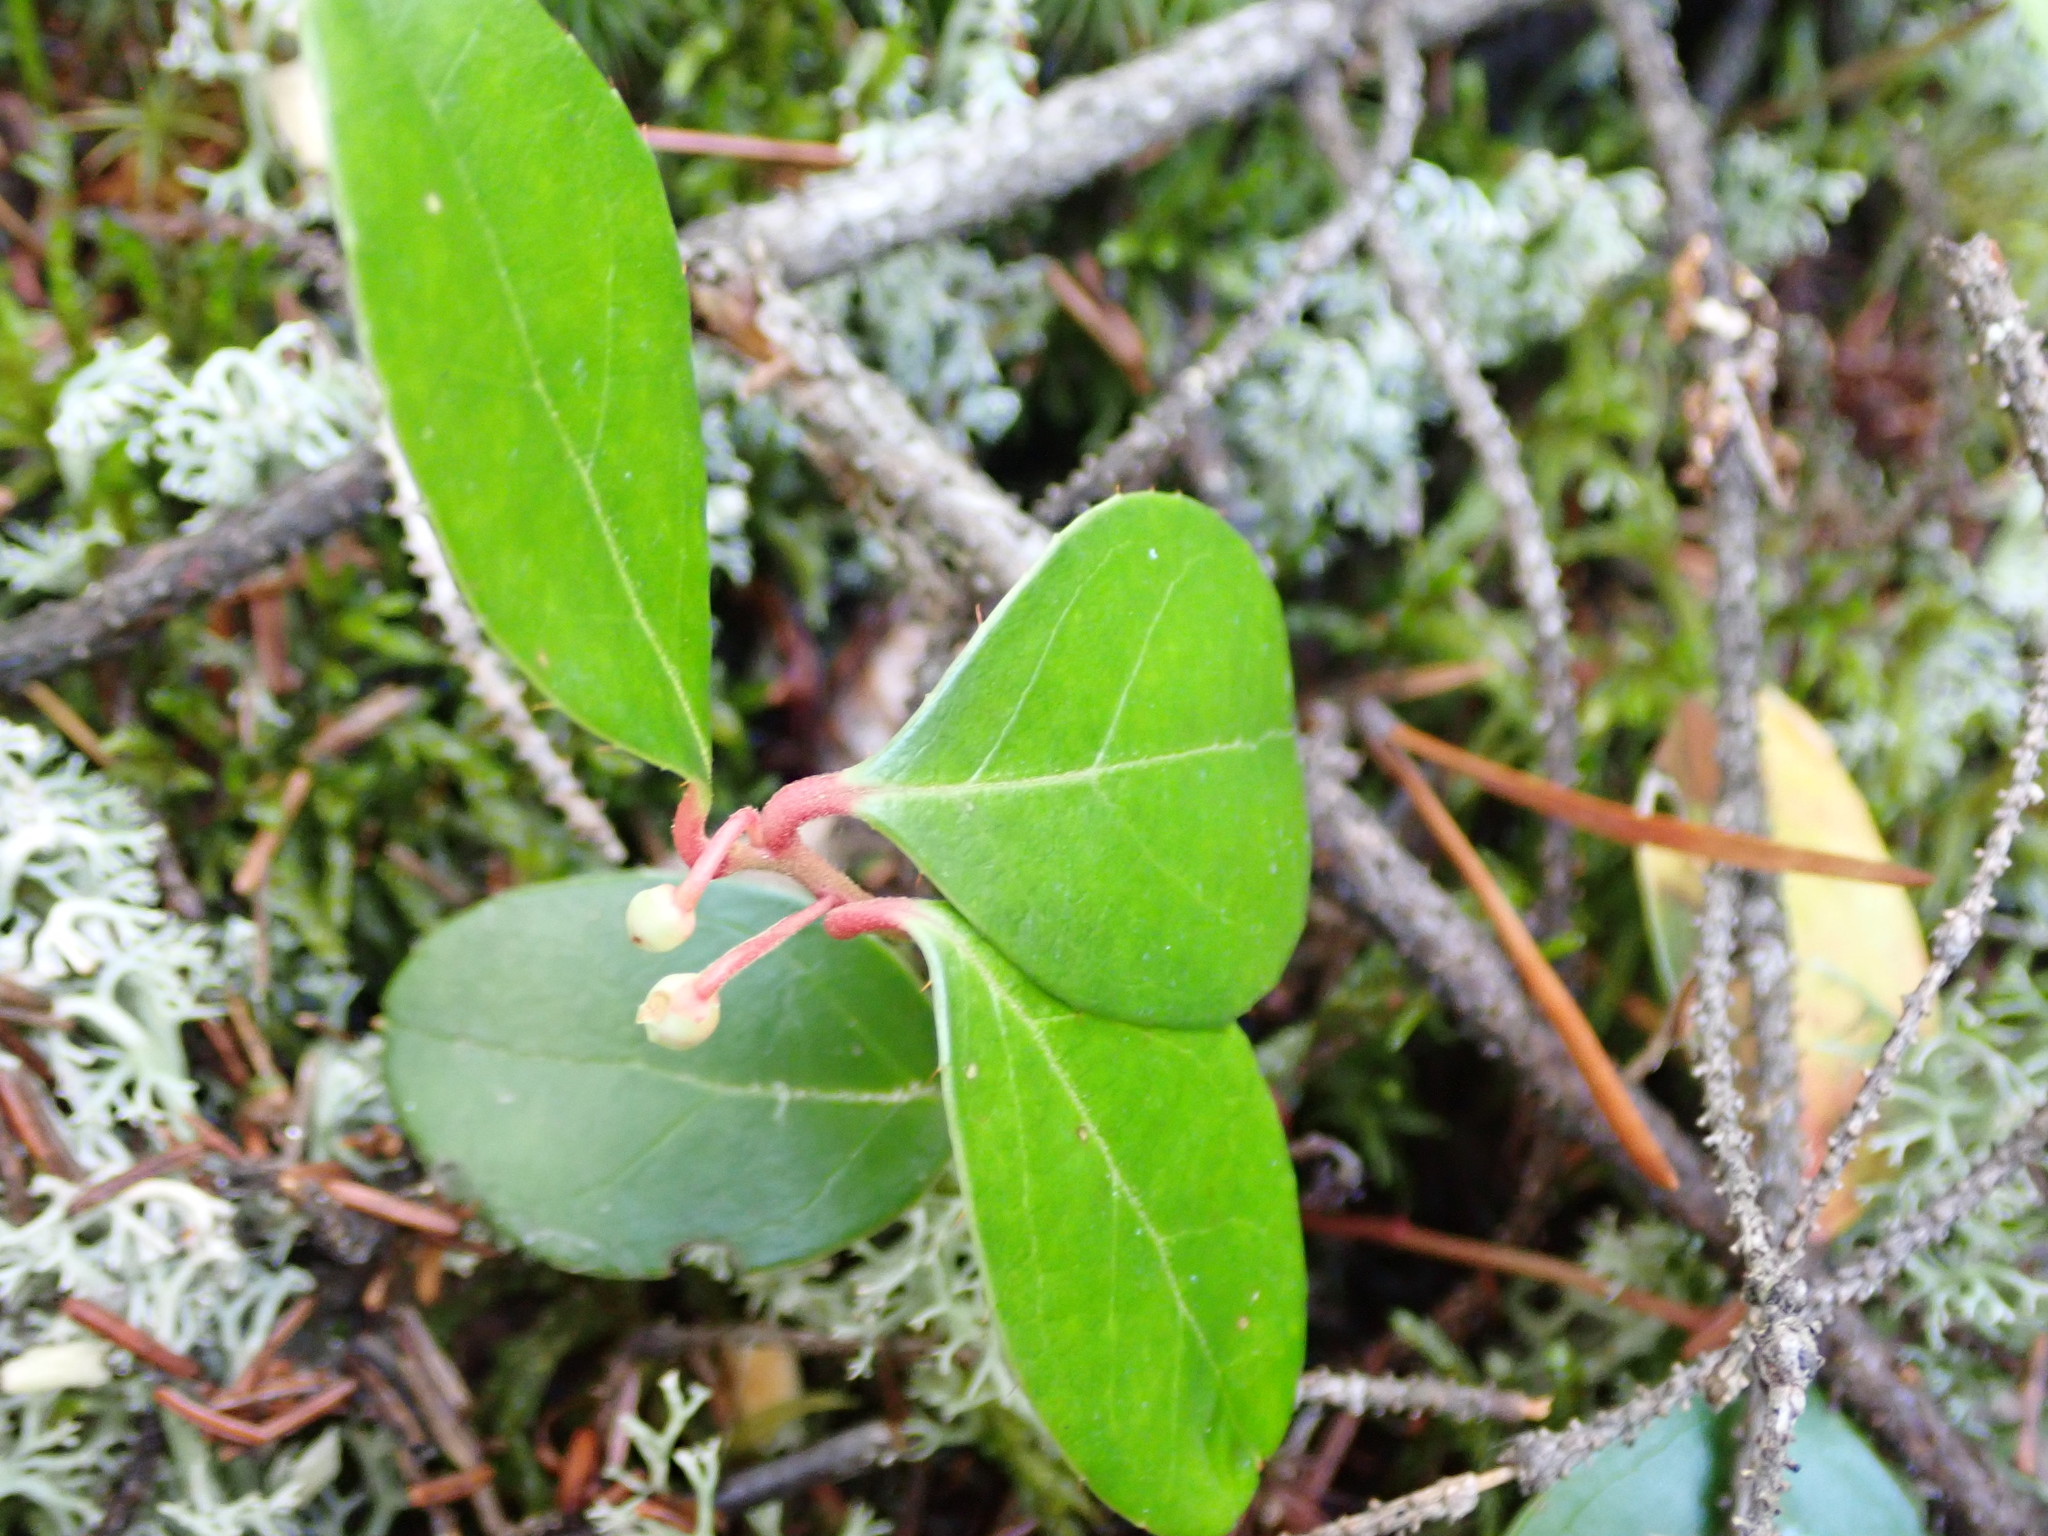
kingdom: Plantae
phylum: Tracheophyta
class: Magnoliopsida
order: Ericales
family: Ericaceae
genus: Gaultheria
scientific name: Gaultheria procumbens
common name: Checkerberry
